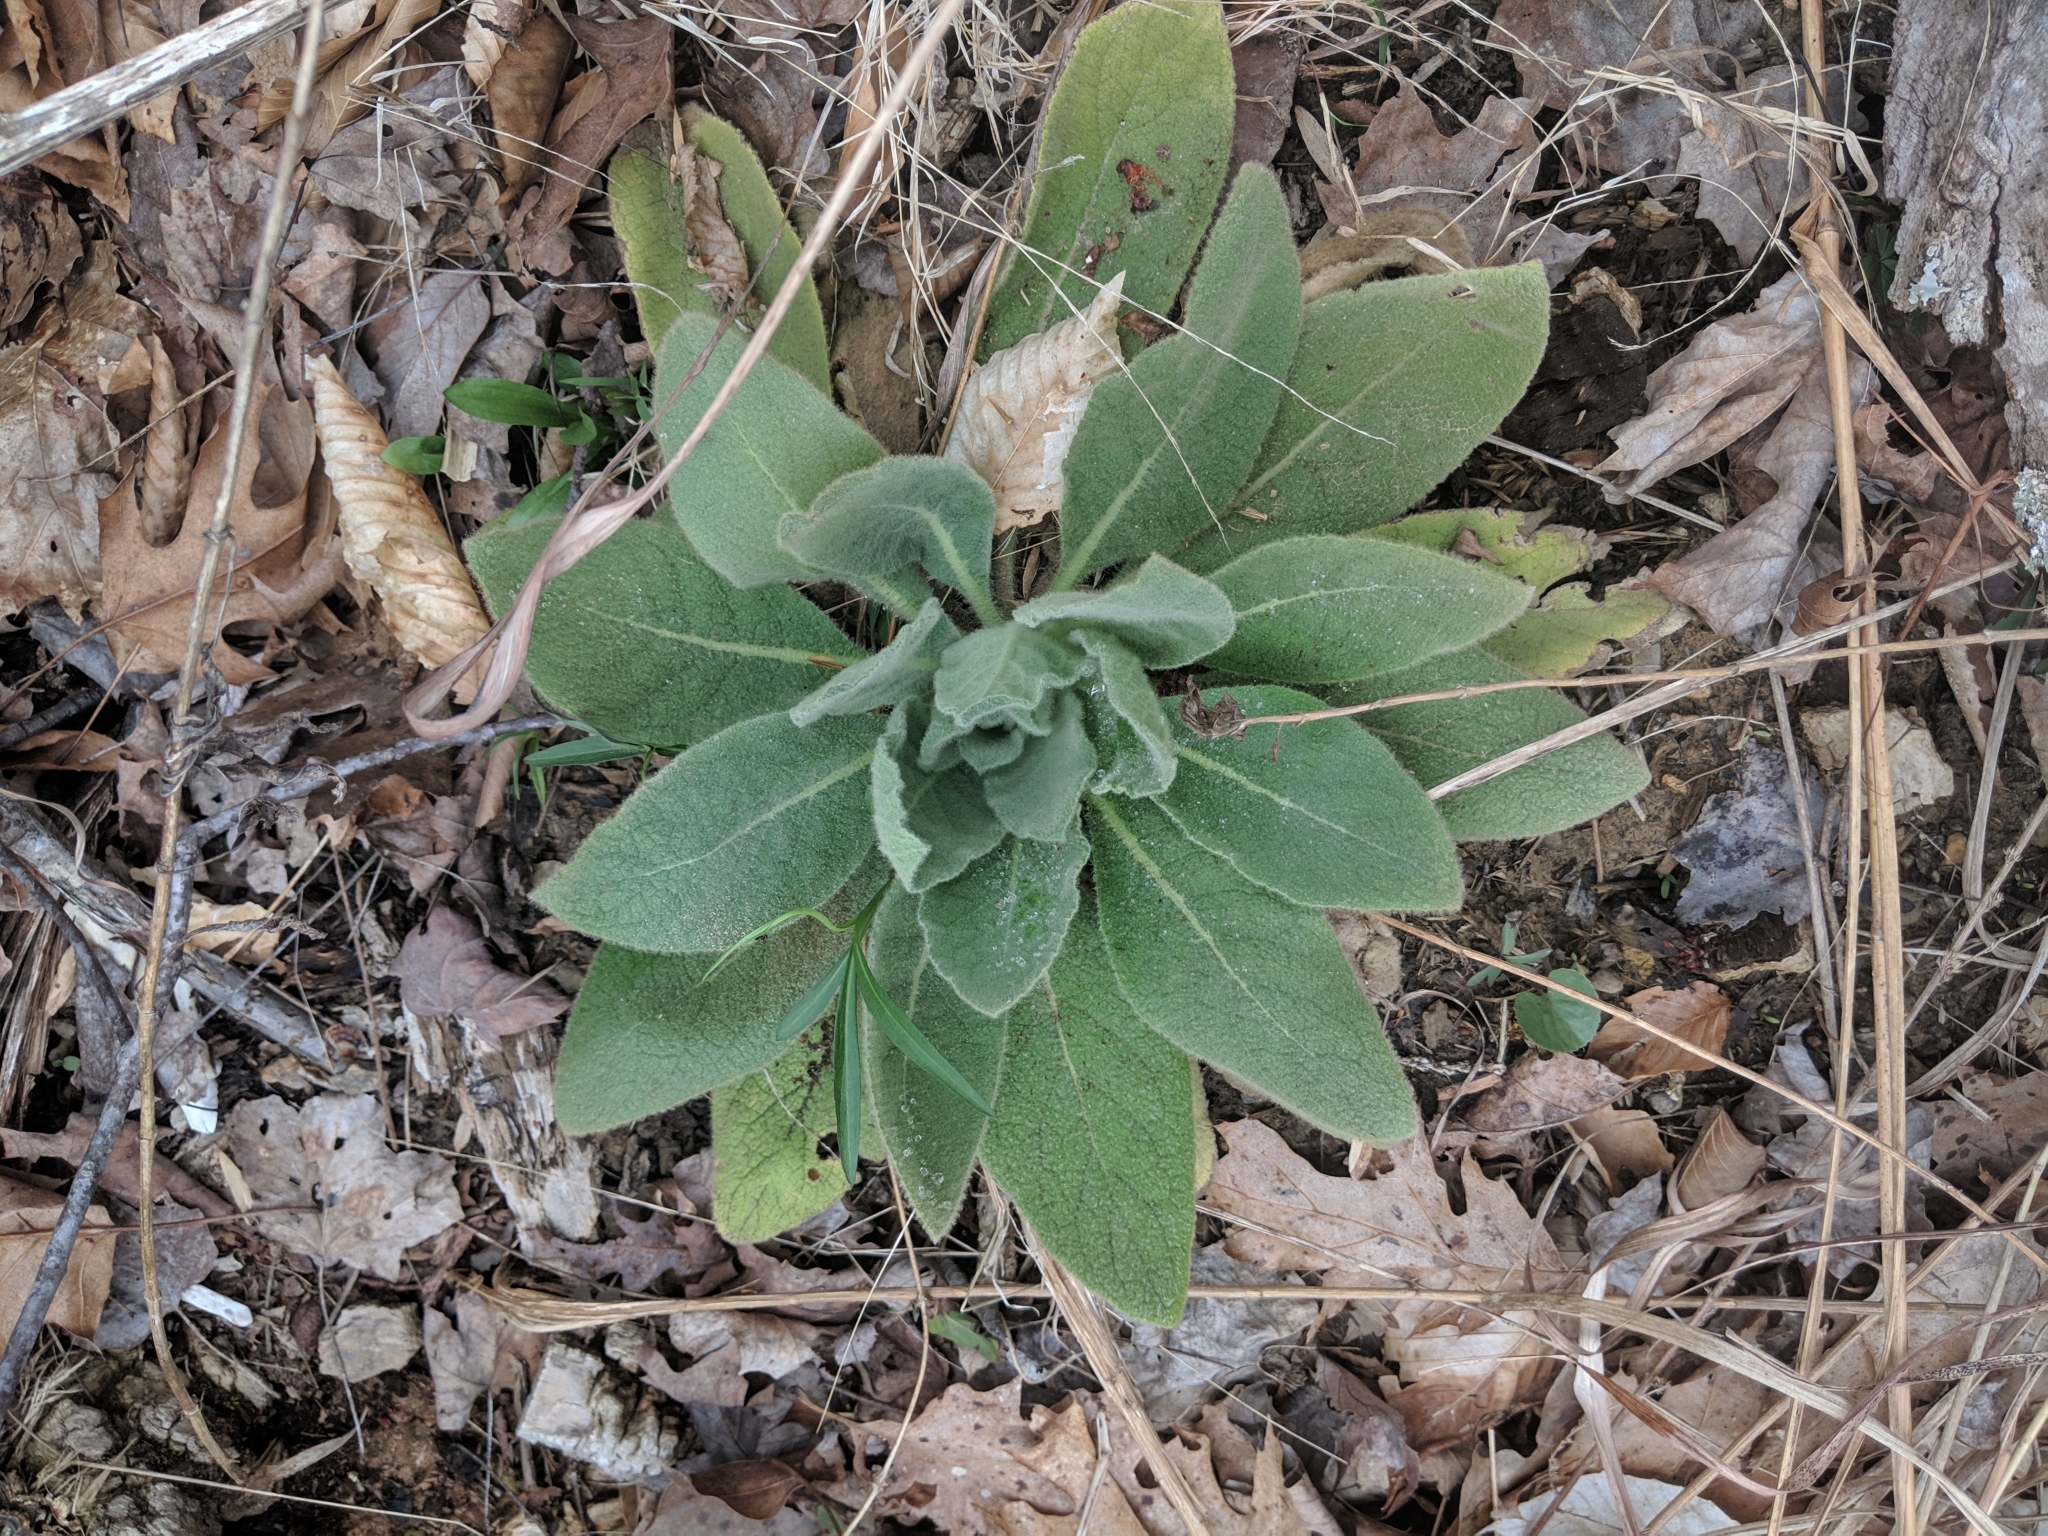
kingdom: Plantae
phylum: Tracheophyta
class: Magnoliopsida
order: Lamiales
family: Scrophulariaceae
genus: Verbascum
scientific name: Verbascum thapsus
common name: Common mullein
